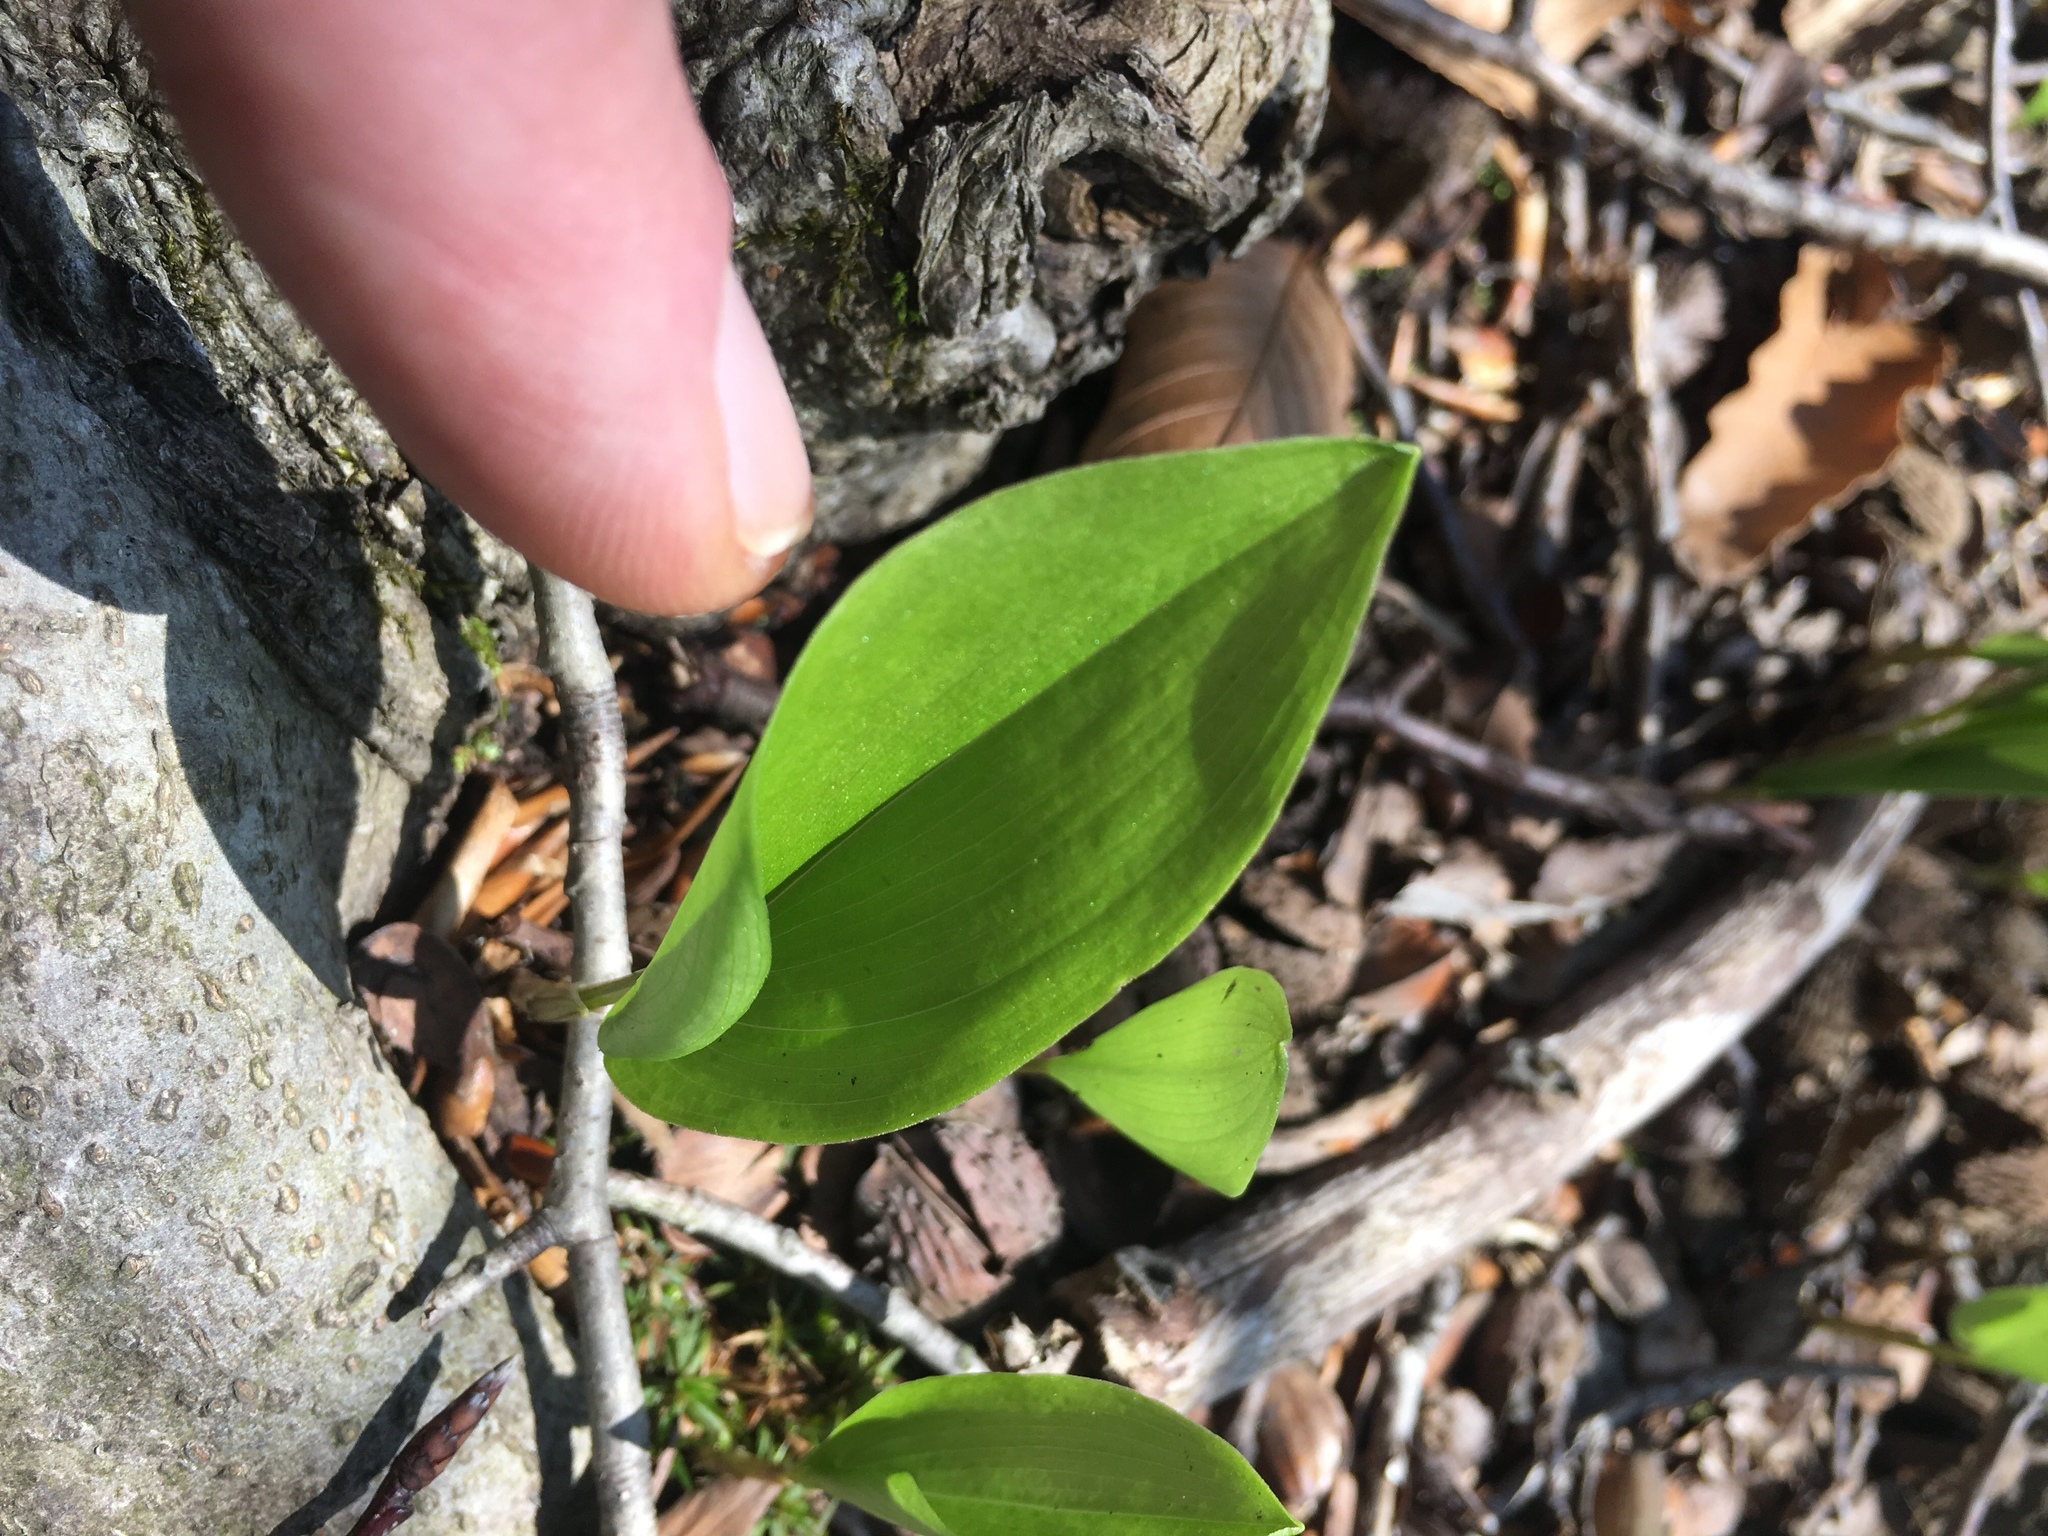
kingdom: Plantae
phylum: Tracheophyta
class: Liliopsida
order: Asparagales
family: Asparagaceae
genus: Maianthemum
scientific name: Maianthemum canadense
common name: False lily-of-the-valley
